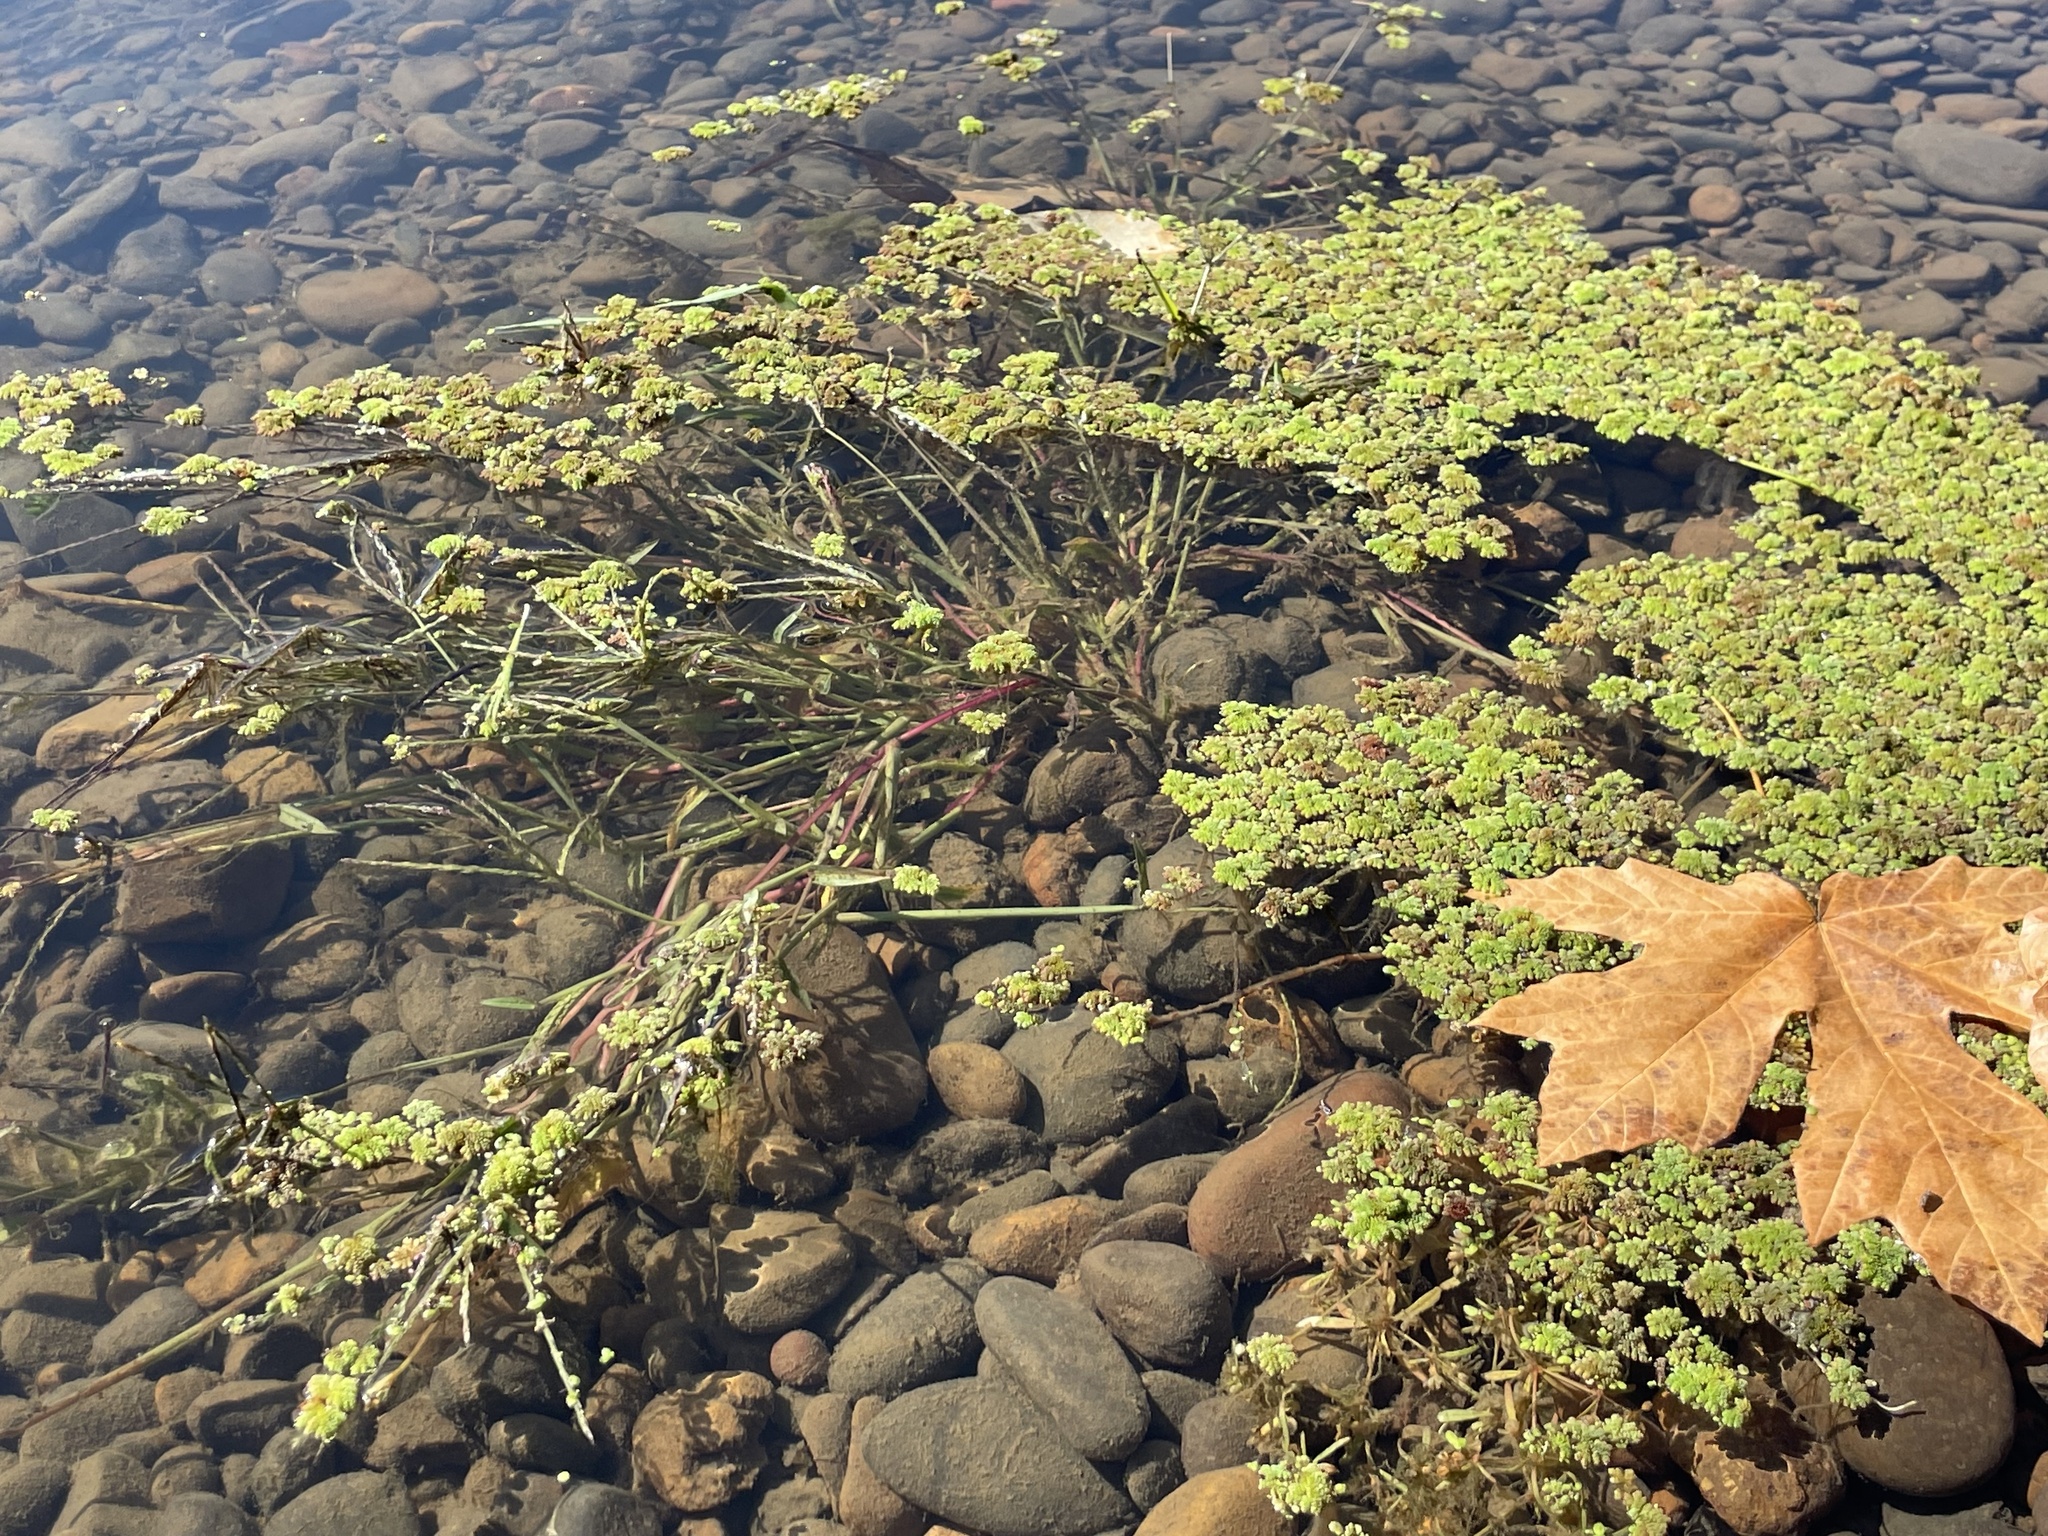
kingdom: Plantae
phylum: Tracheophyta
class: Polypodiopsida
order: Salviniales
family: Salviniaceae
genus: Azolla
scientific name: Azolla filiculoides
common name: Water fern
